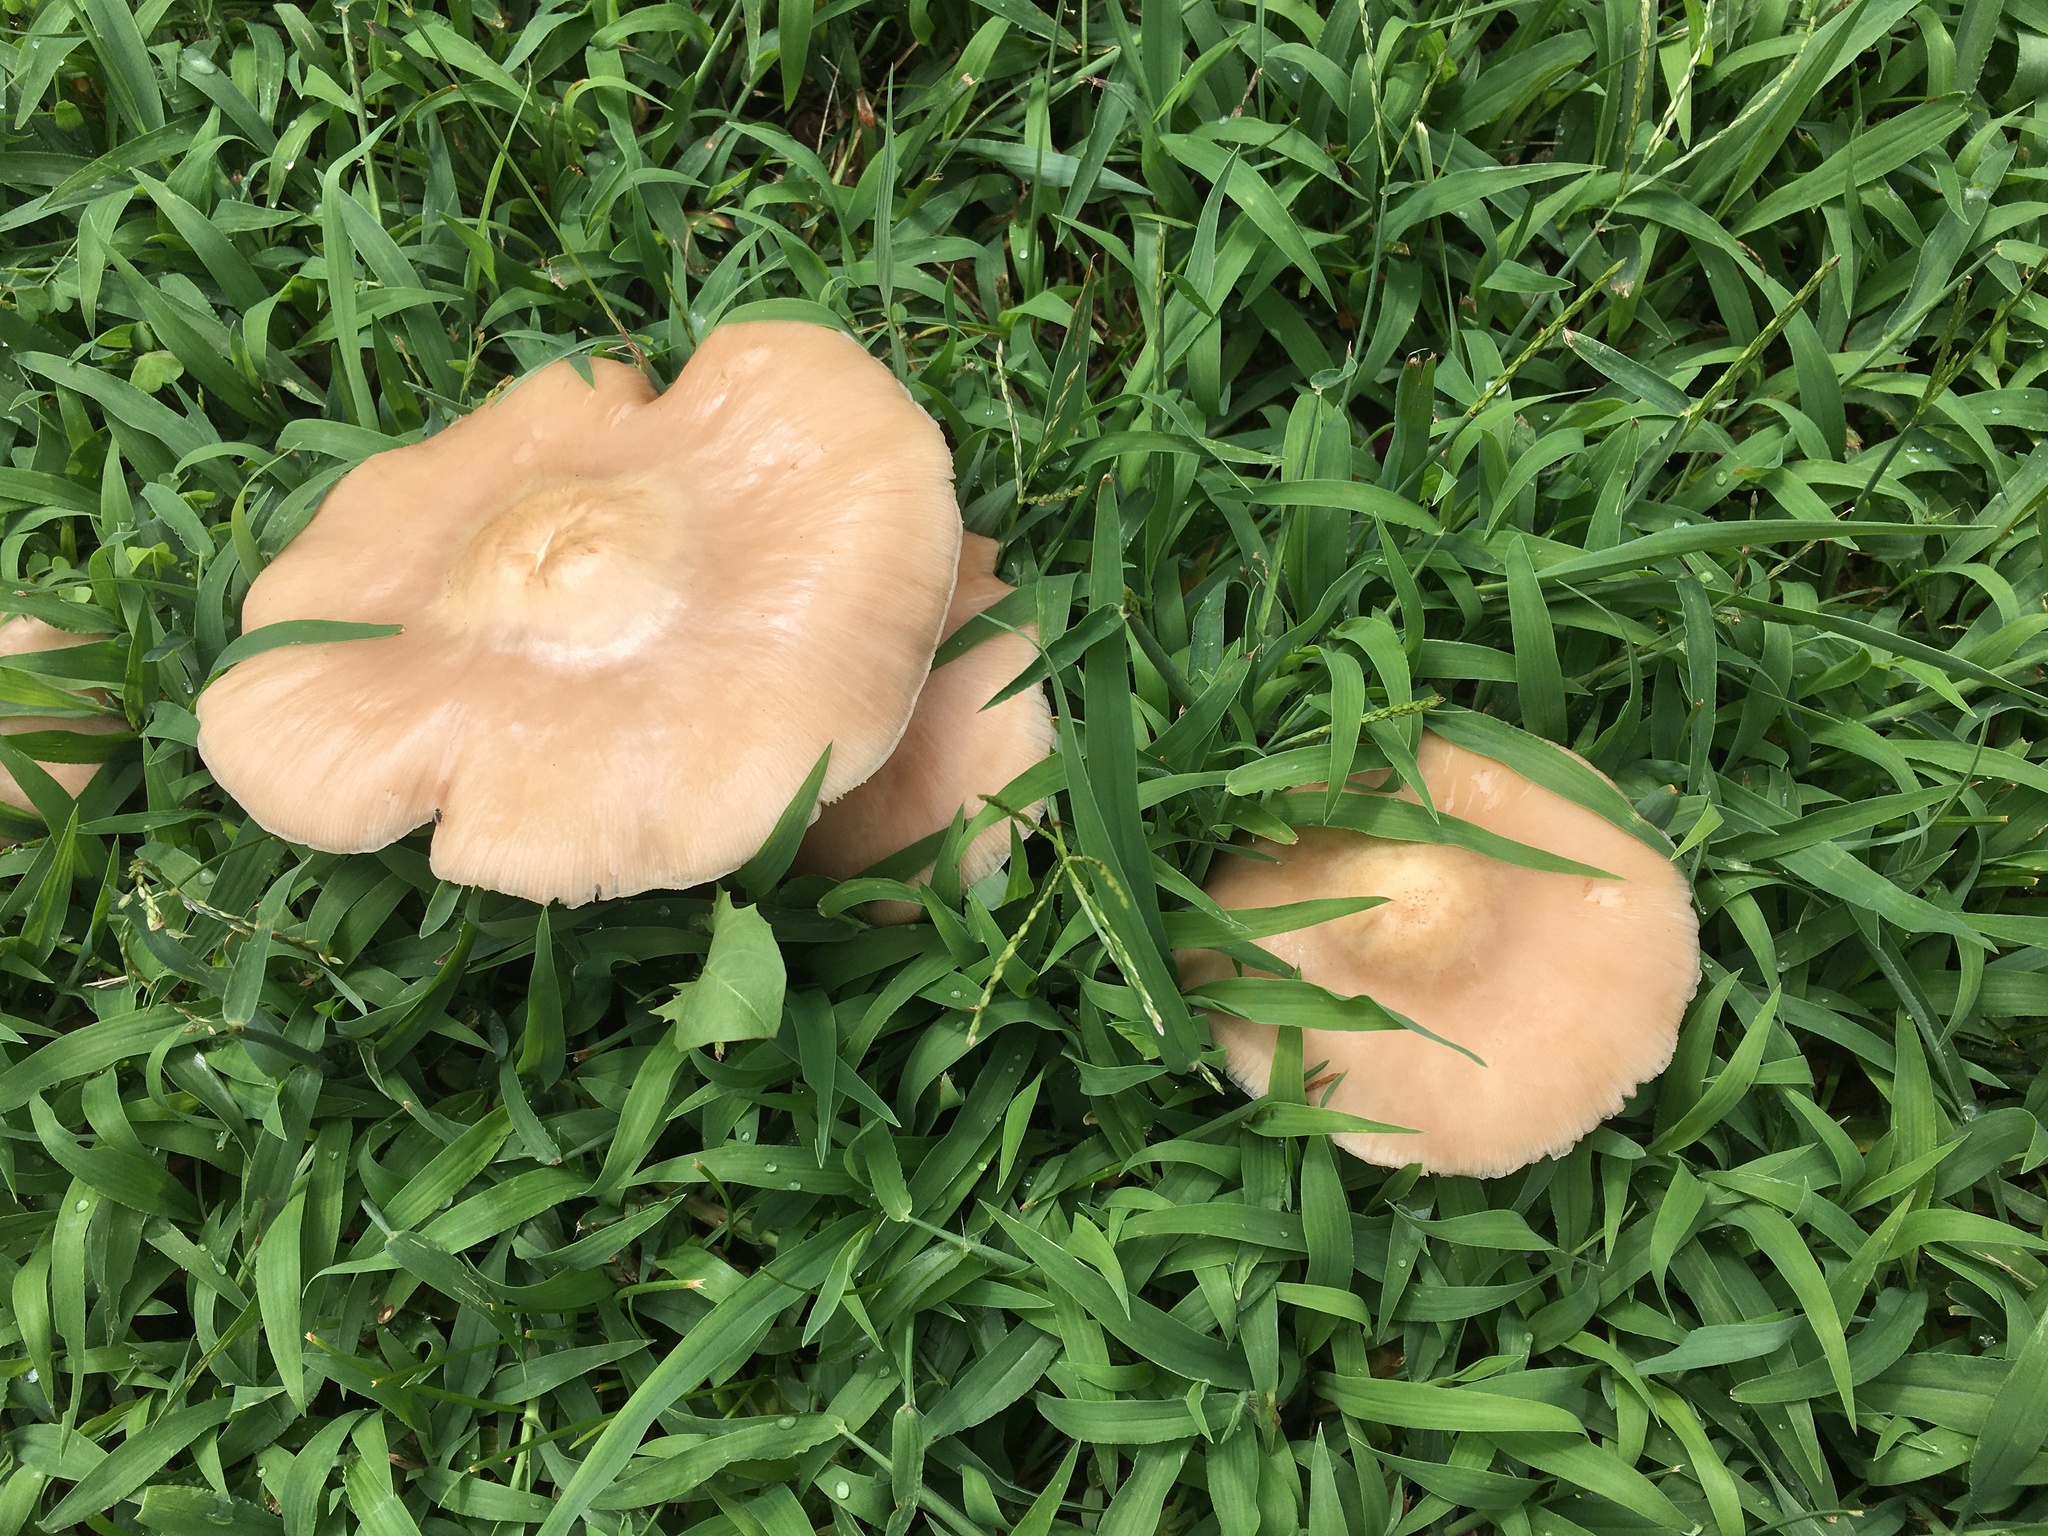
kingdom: Fungi
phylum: Basidiomycota
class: Agaricomycetes
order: Agaricales
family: Marasmiaceae
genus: Marasmius
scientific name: Marasmius oreades
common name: Fairy ring champignon
